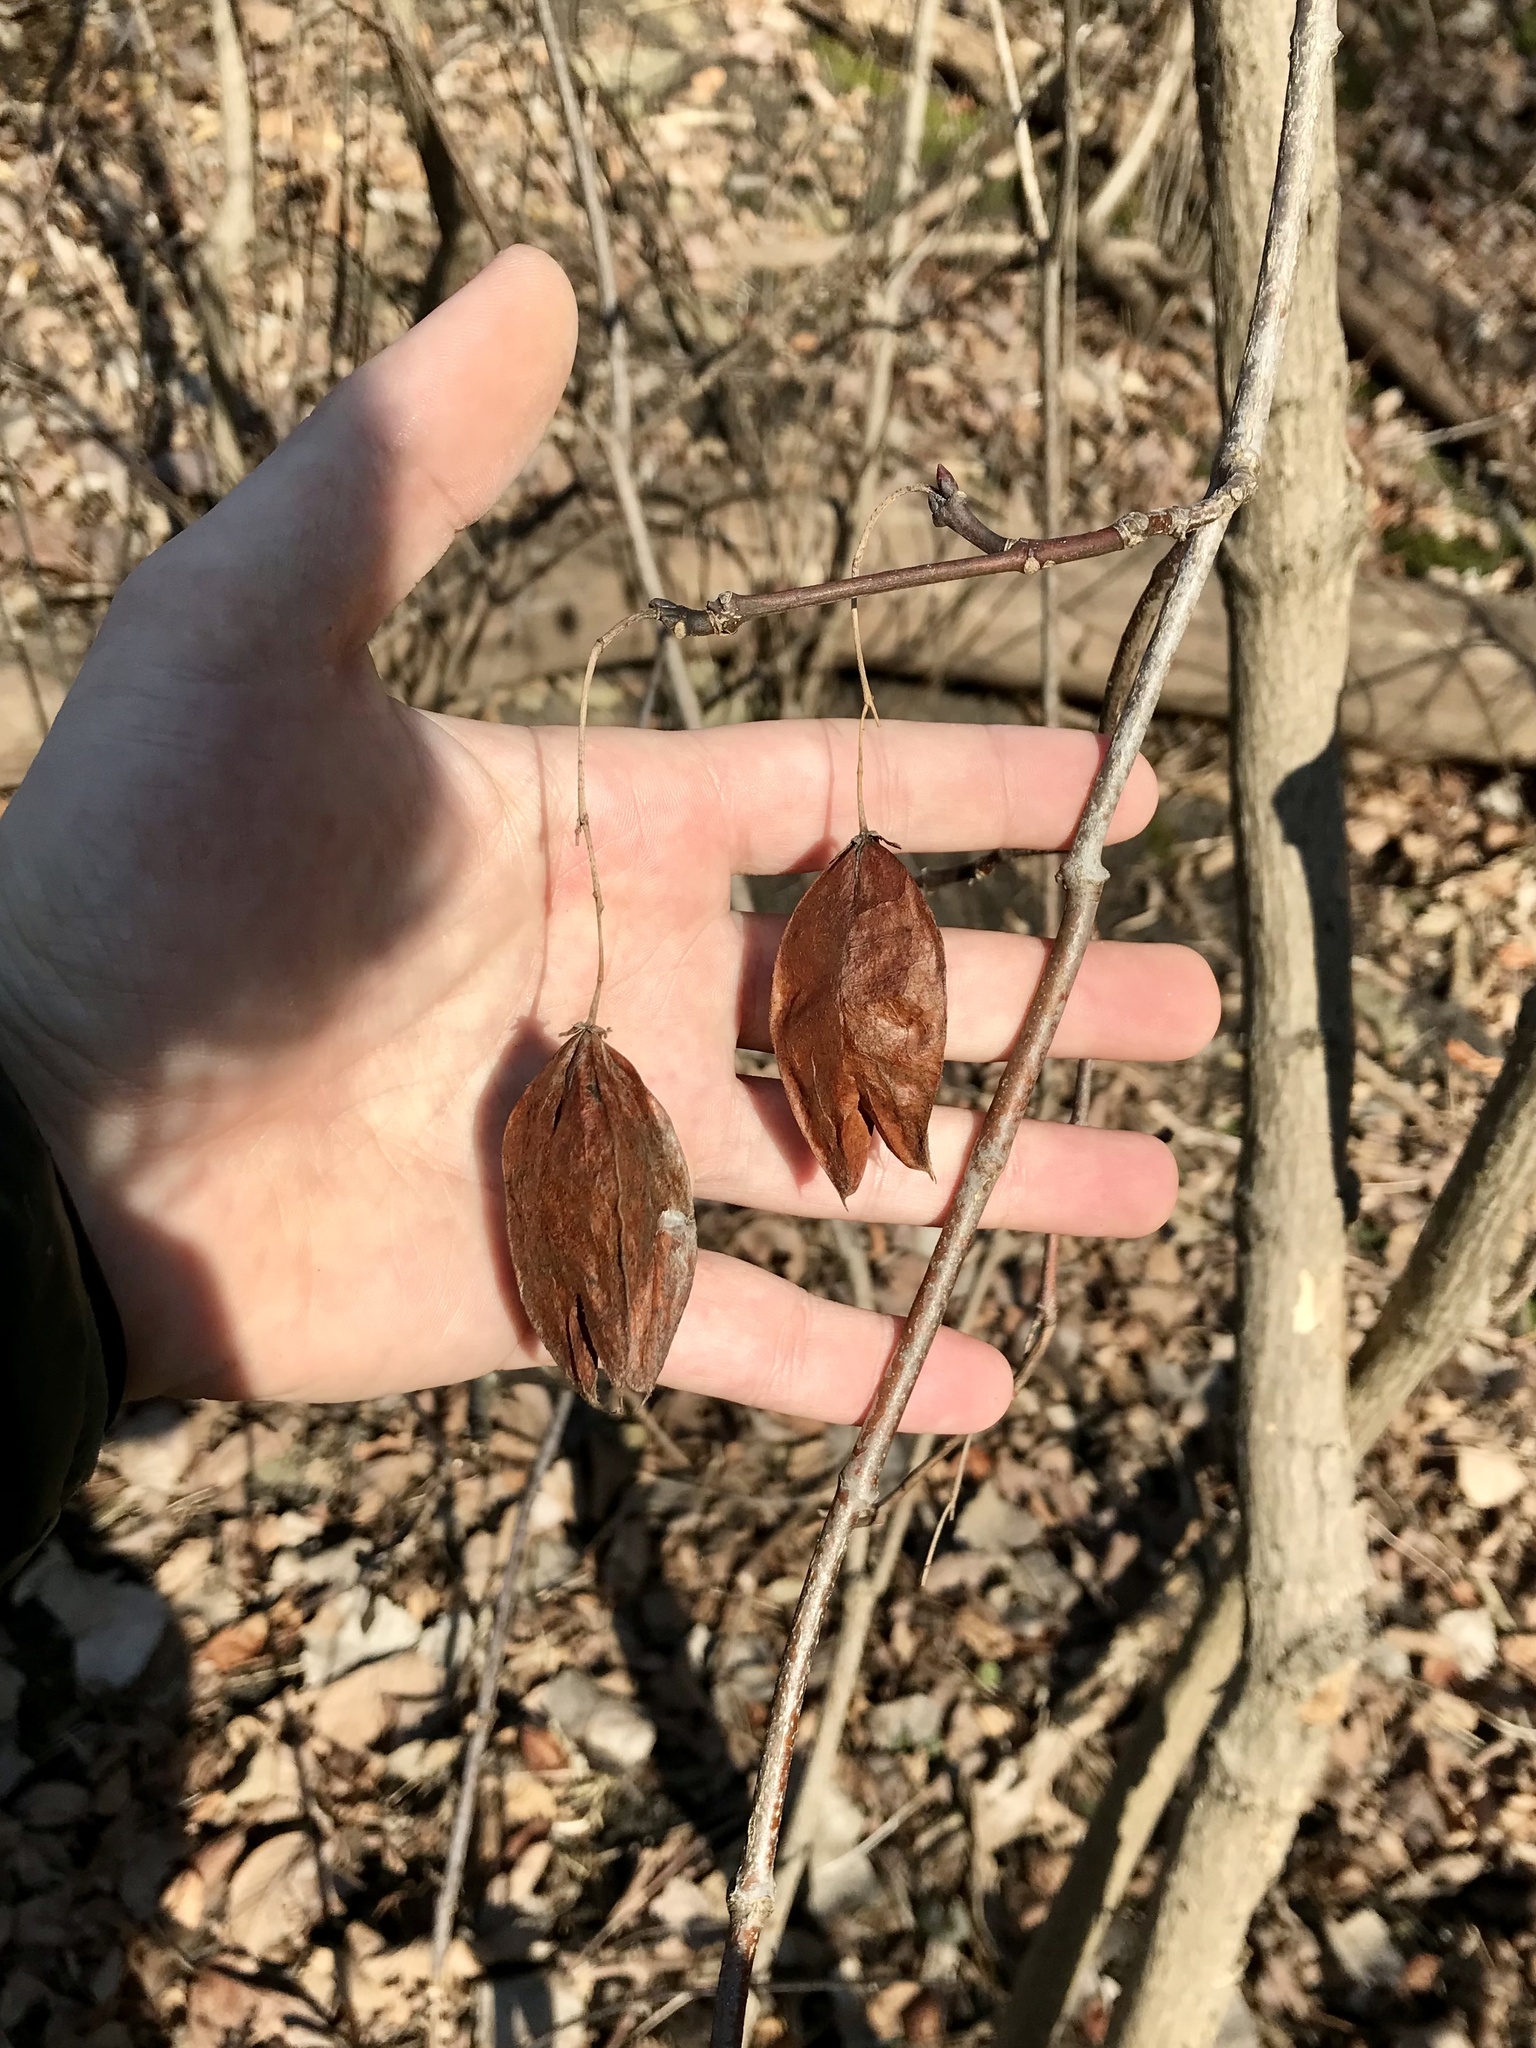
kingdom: Plantae
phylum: Tracheophyta
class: Magnoliopsida
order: Crossosomatales
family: Staphyleaceae
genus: Staphylea
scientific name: Staphylea trifolia
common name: American bladdernut
